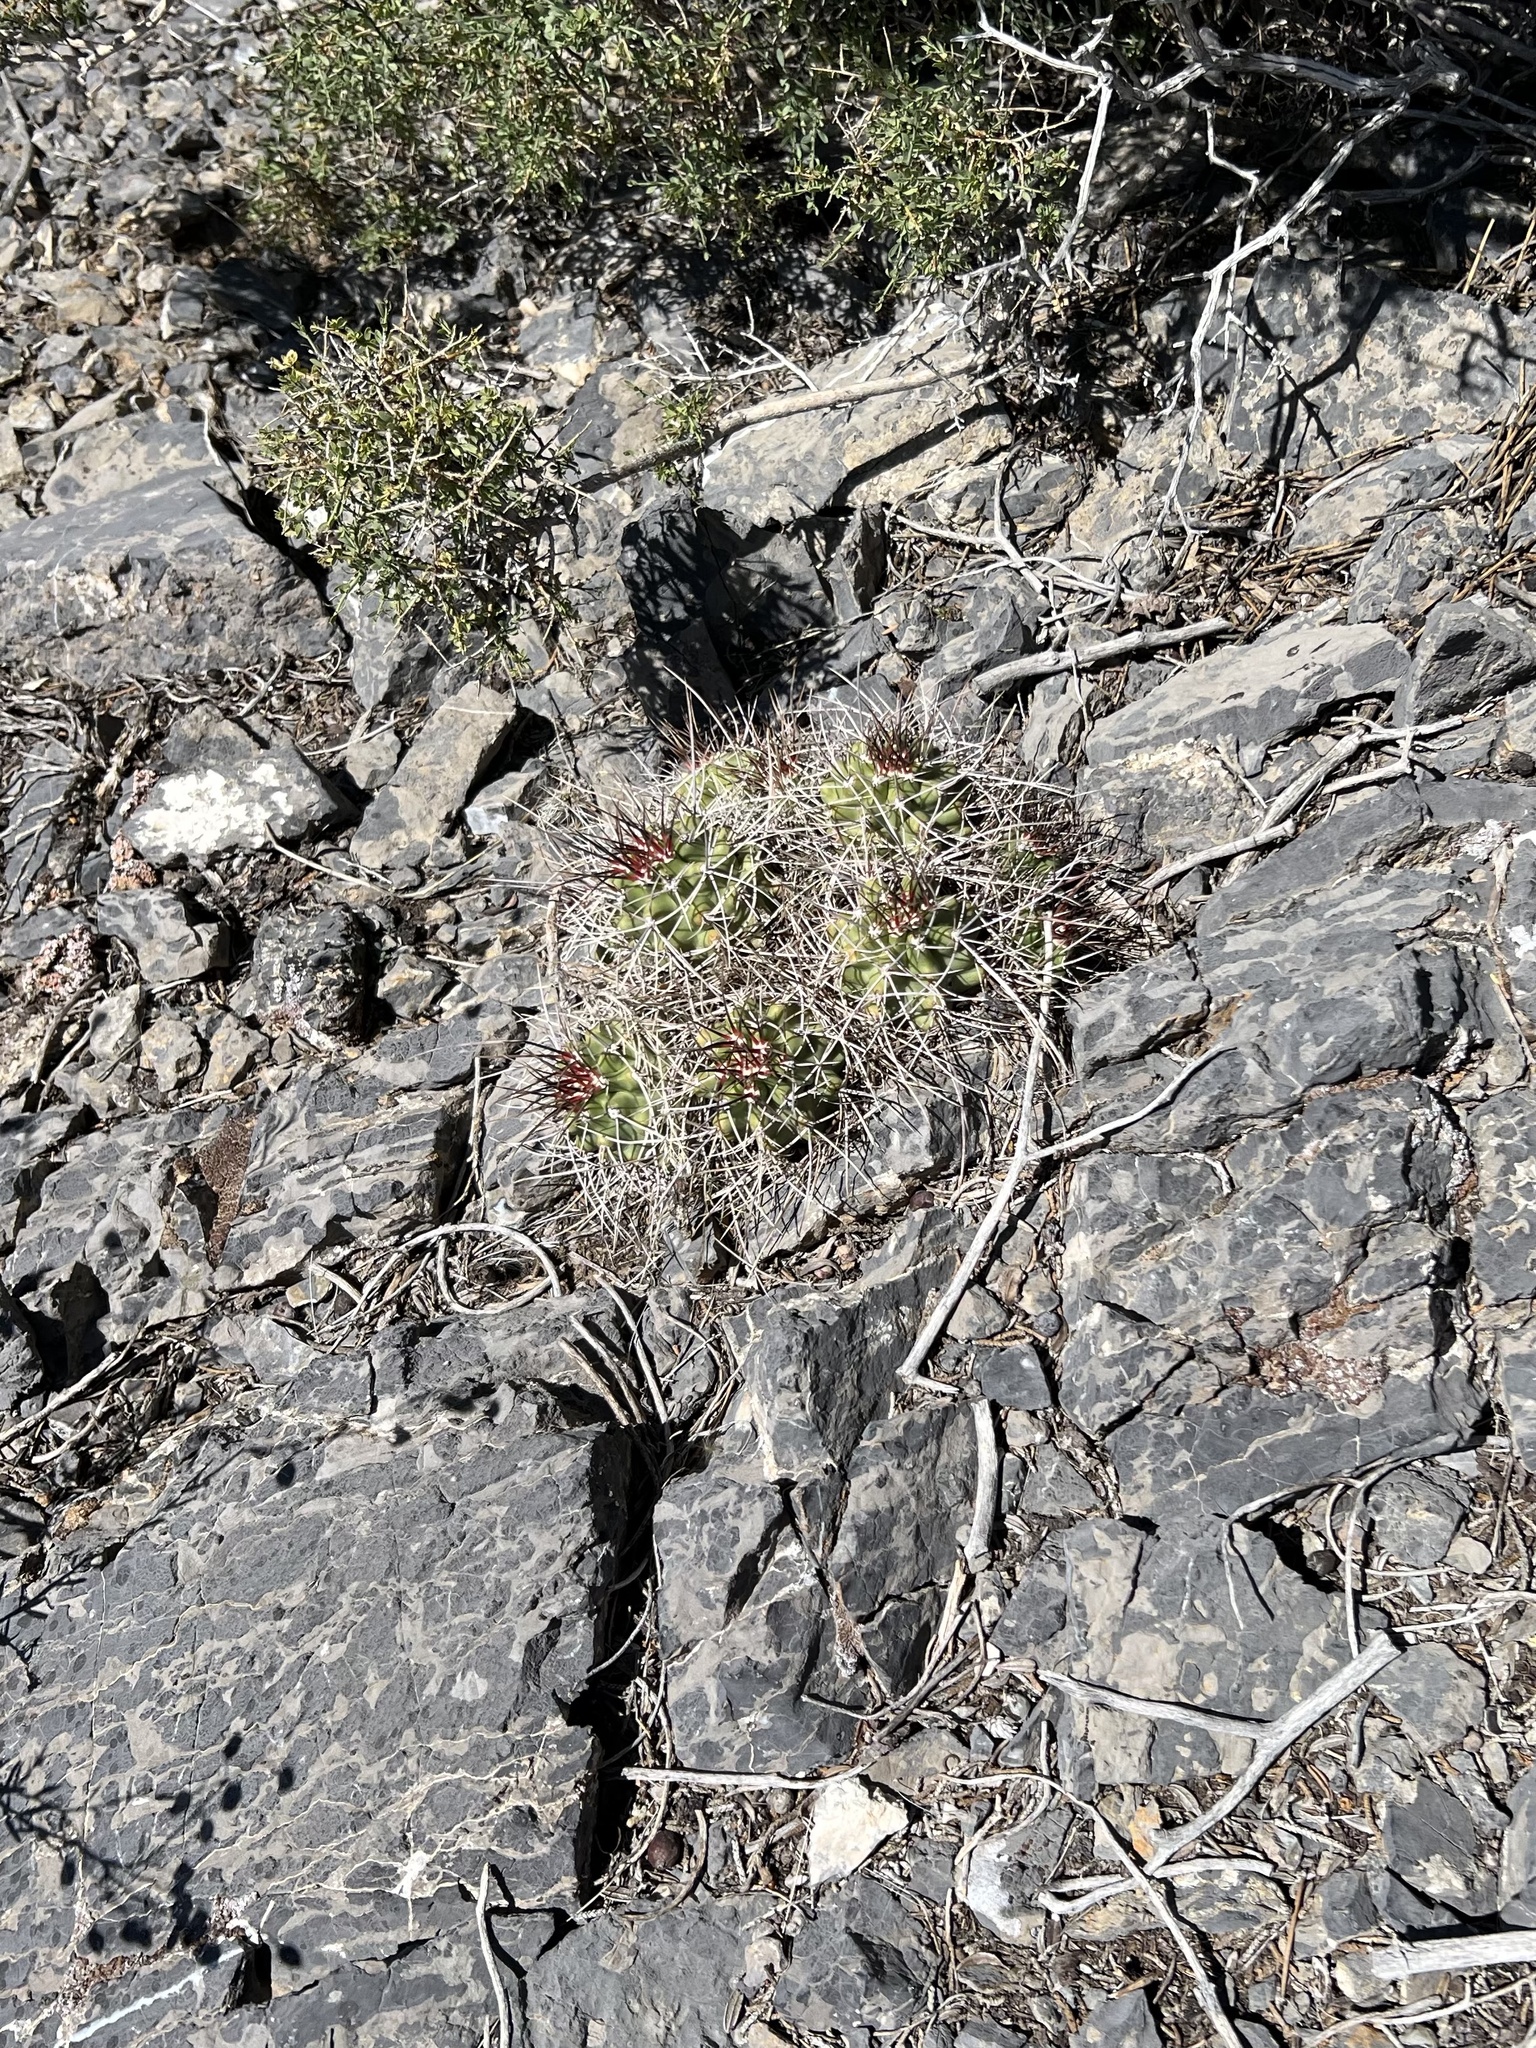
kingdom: Plantae
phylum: Tracheophyta
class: Magnoliopsida
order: Caryophyllales
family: Cactaceae
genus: Echinocereus
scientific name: Echinocereus triglochidiatus
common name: Claretcup hedgehog
